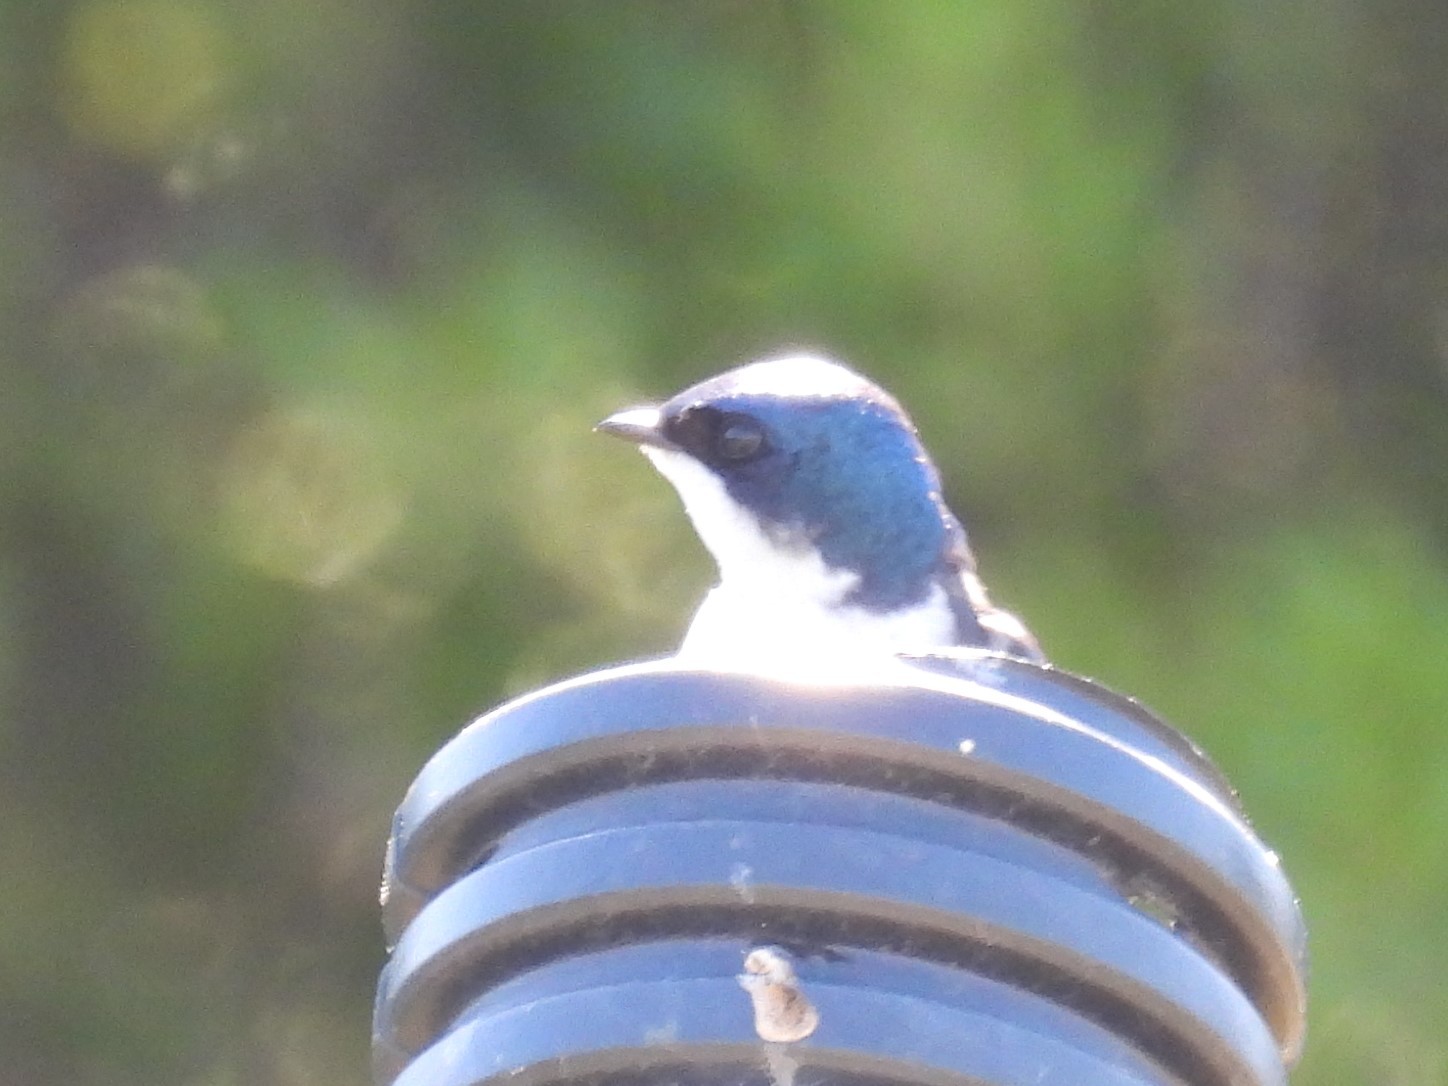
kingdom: Animalia
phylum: Chordata
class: Aves
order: Passeriformes
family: Hirundinidae
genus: Tachycineta
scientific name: Tachycineta bicolor
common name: Tree swallow
